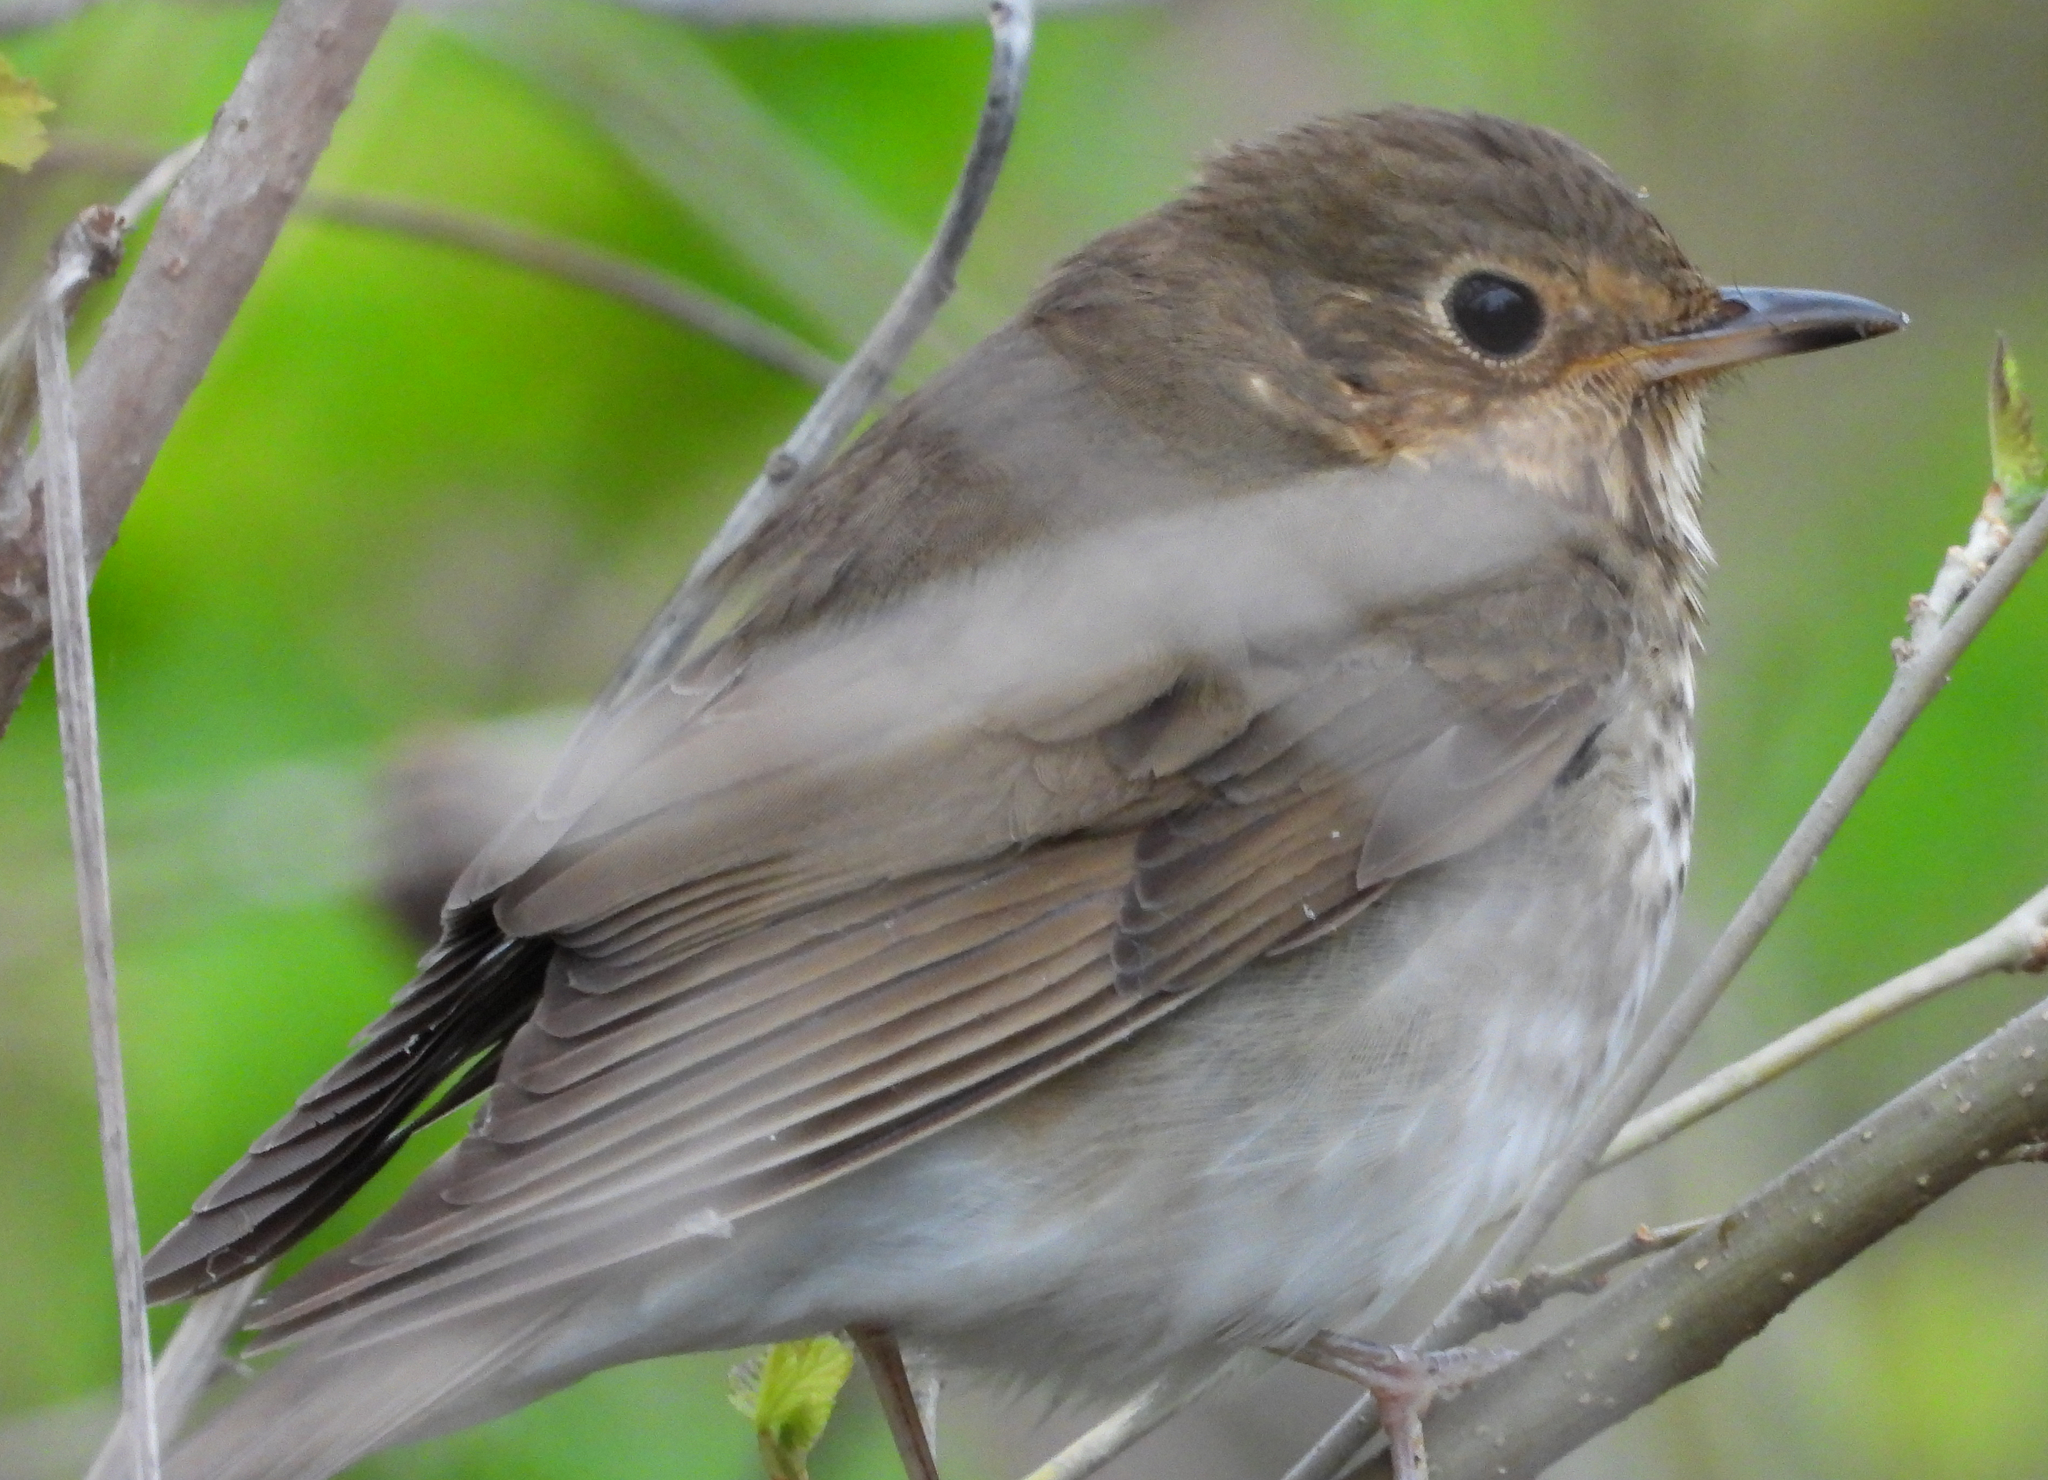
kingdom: Animalia
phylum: Chordata
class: Aves
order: Passeriformes
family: Turdidae
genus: Catharus
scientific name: Catharus ustulatus
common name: Swainson's thrush
